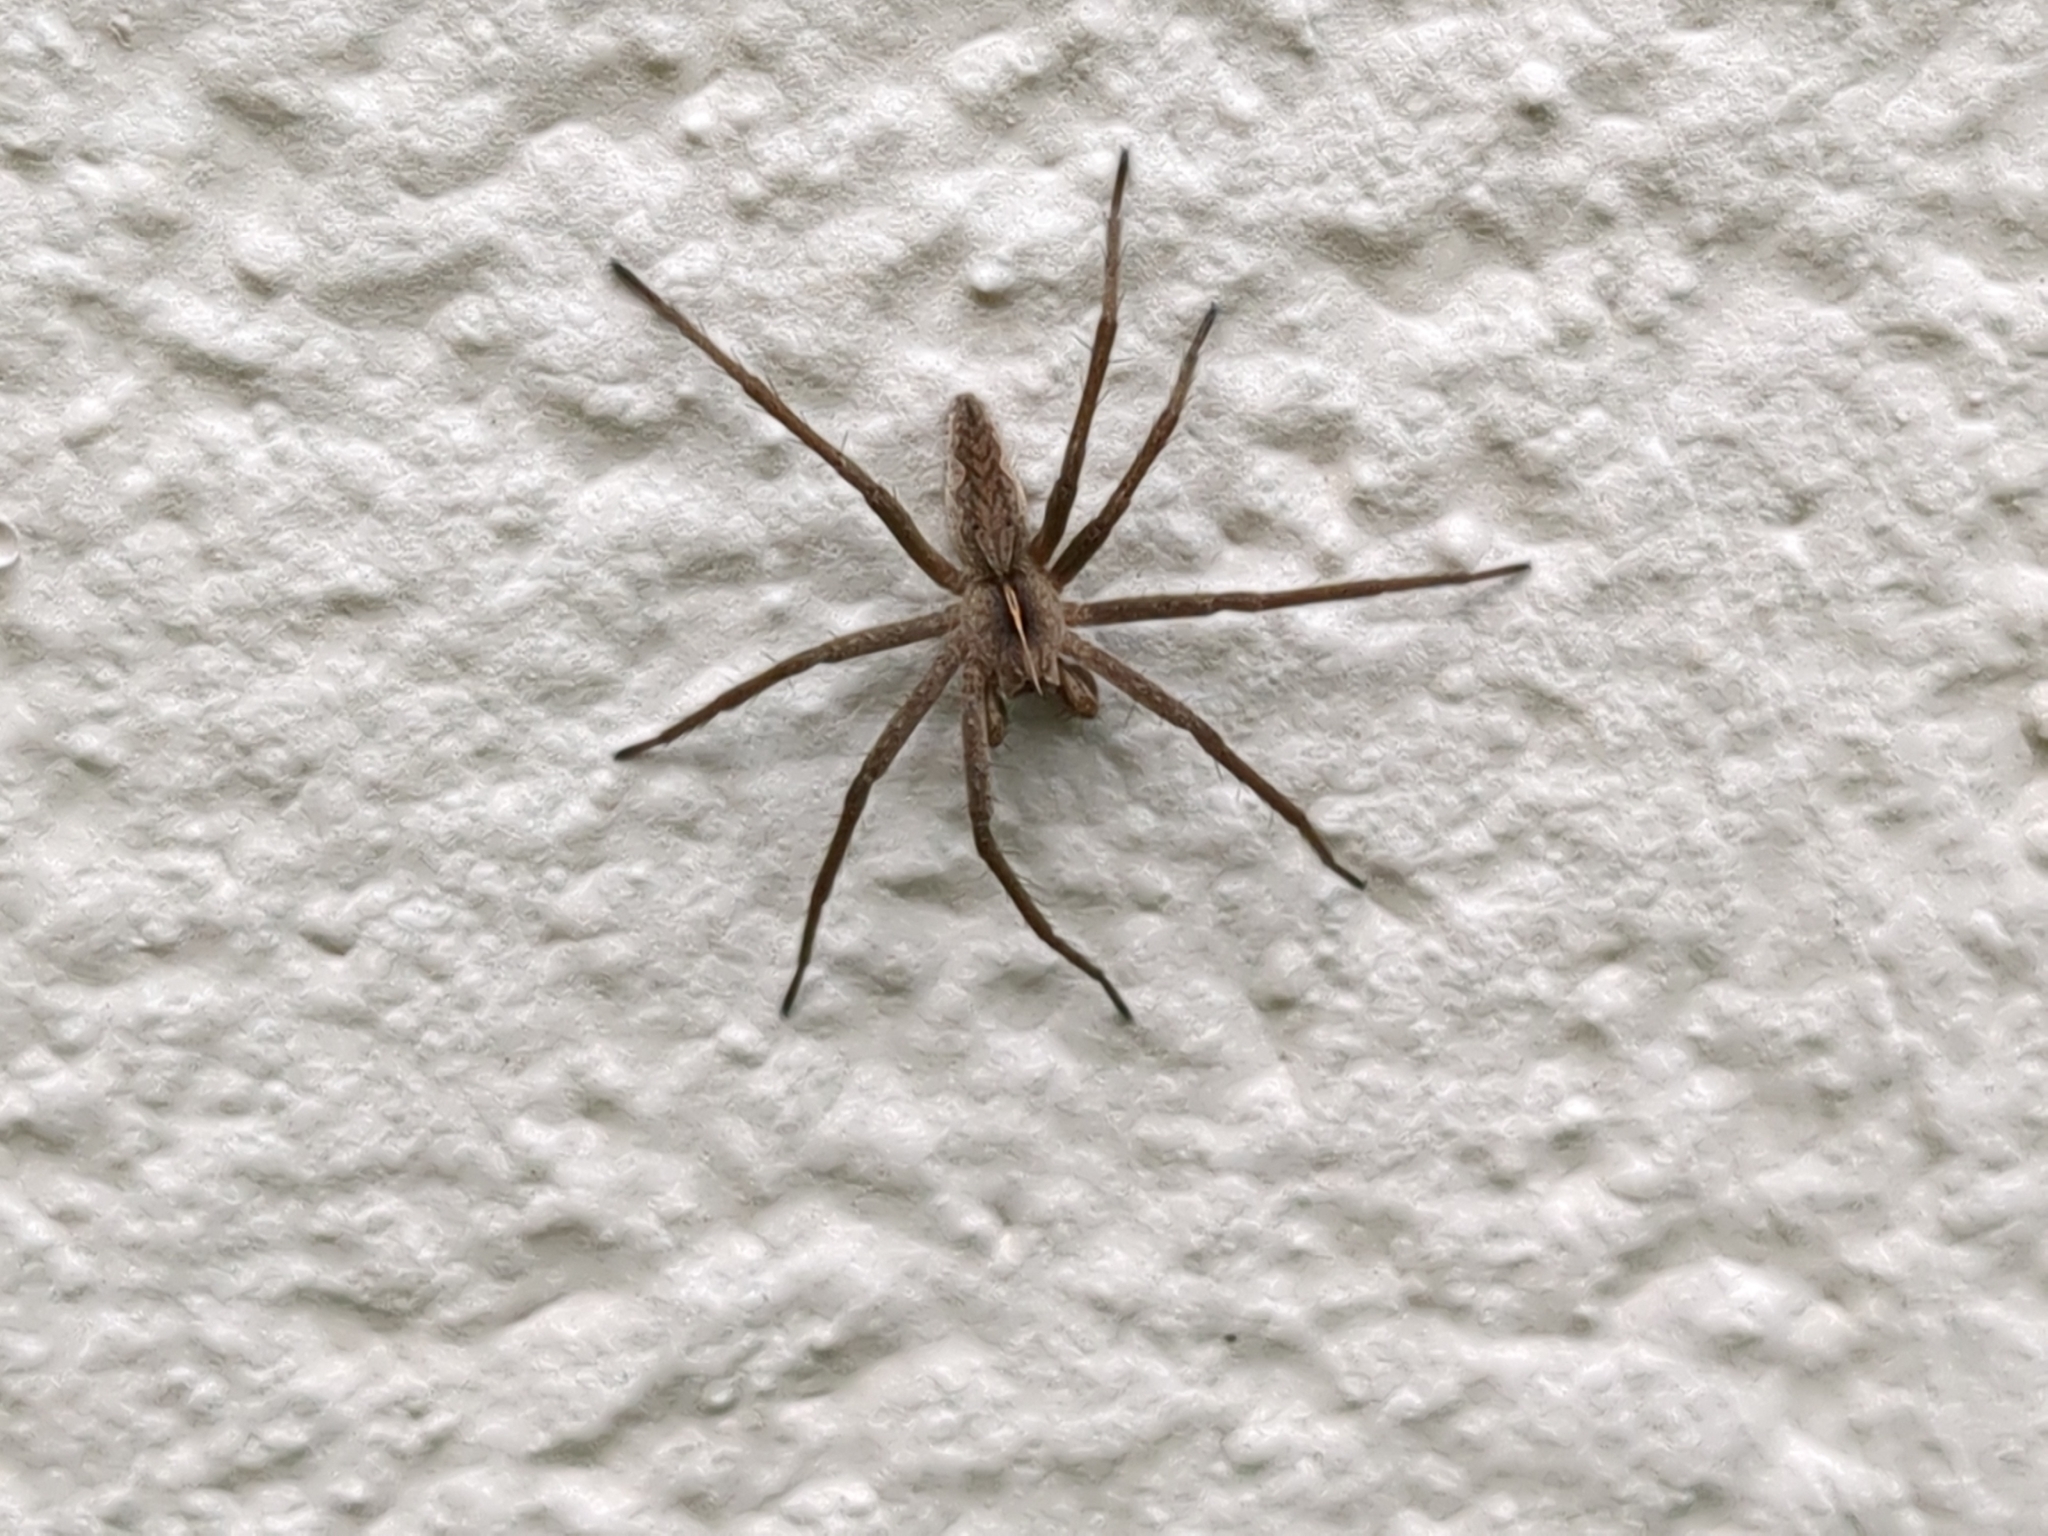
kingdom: Animalia
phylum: Arthropoda
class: Arachnida
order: Araneae
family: Pisauridae
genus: Pisaura
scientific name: Pisaura mirabilis
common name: Tent spider
